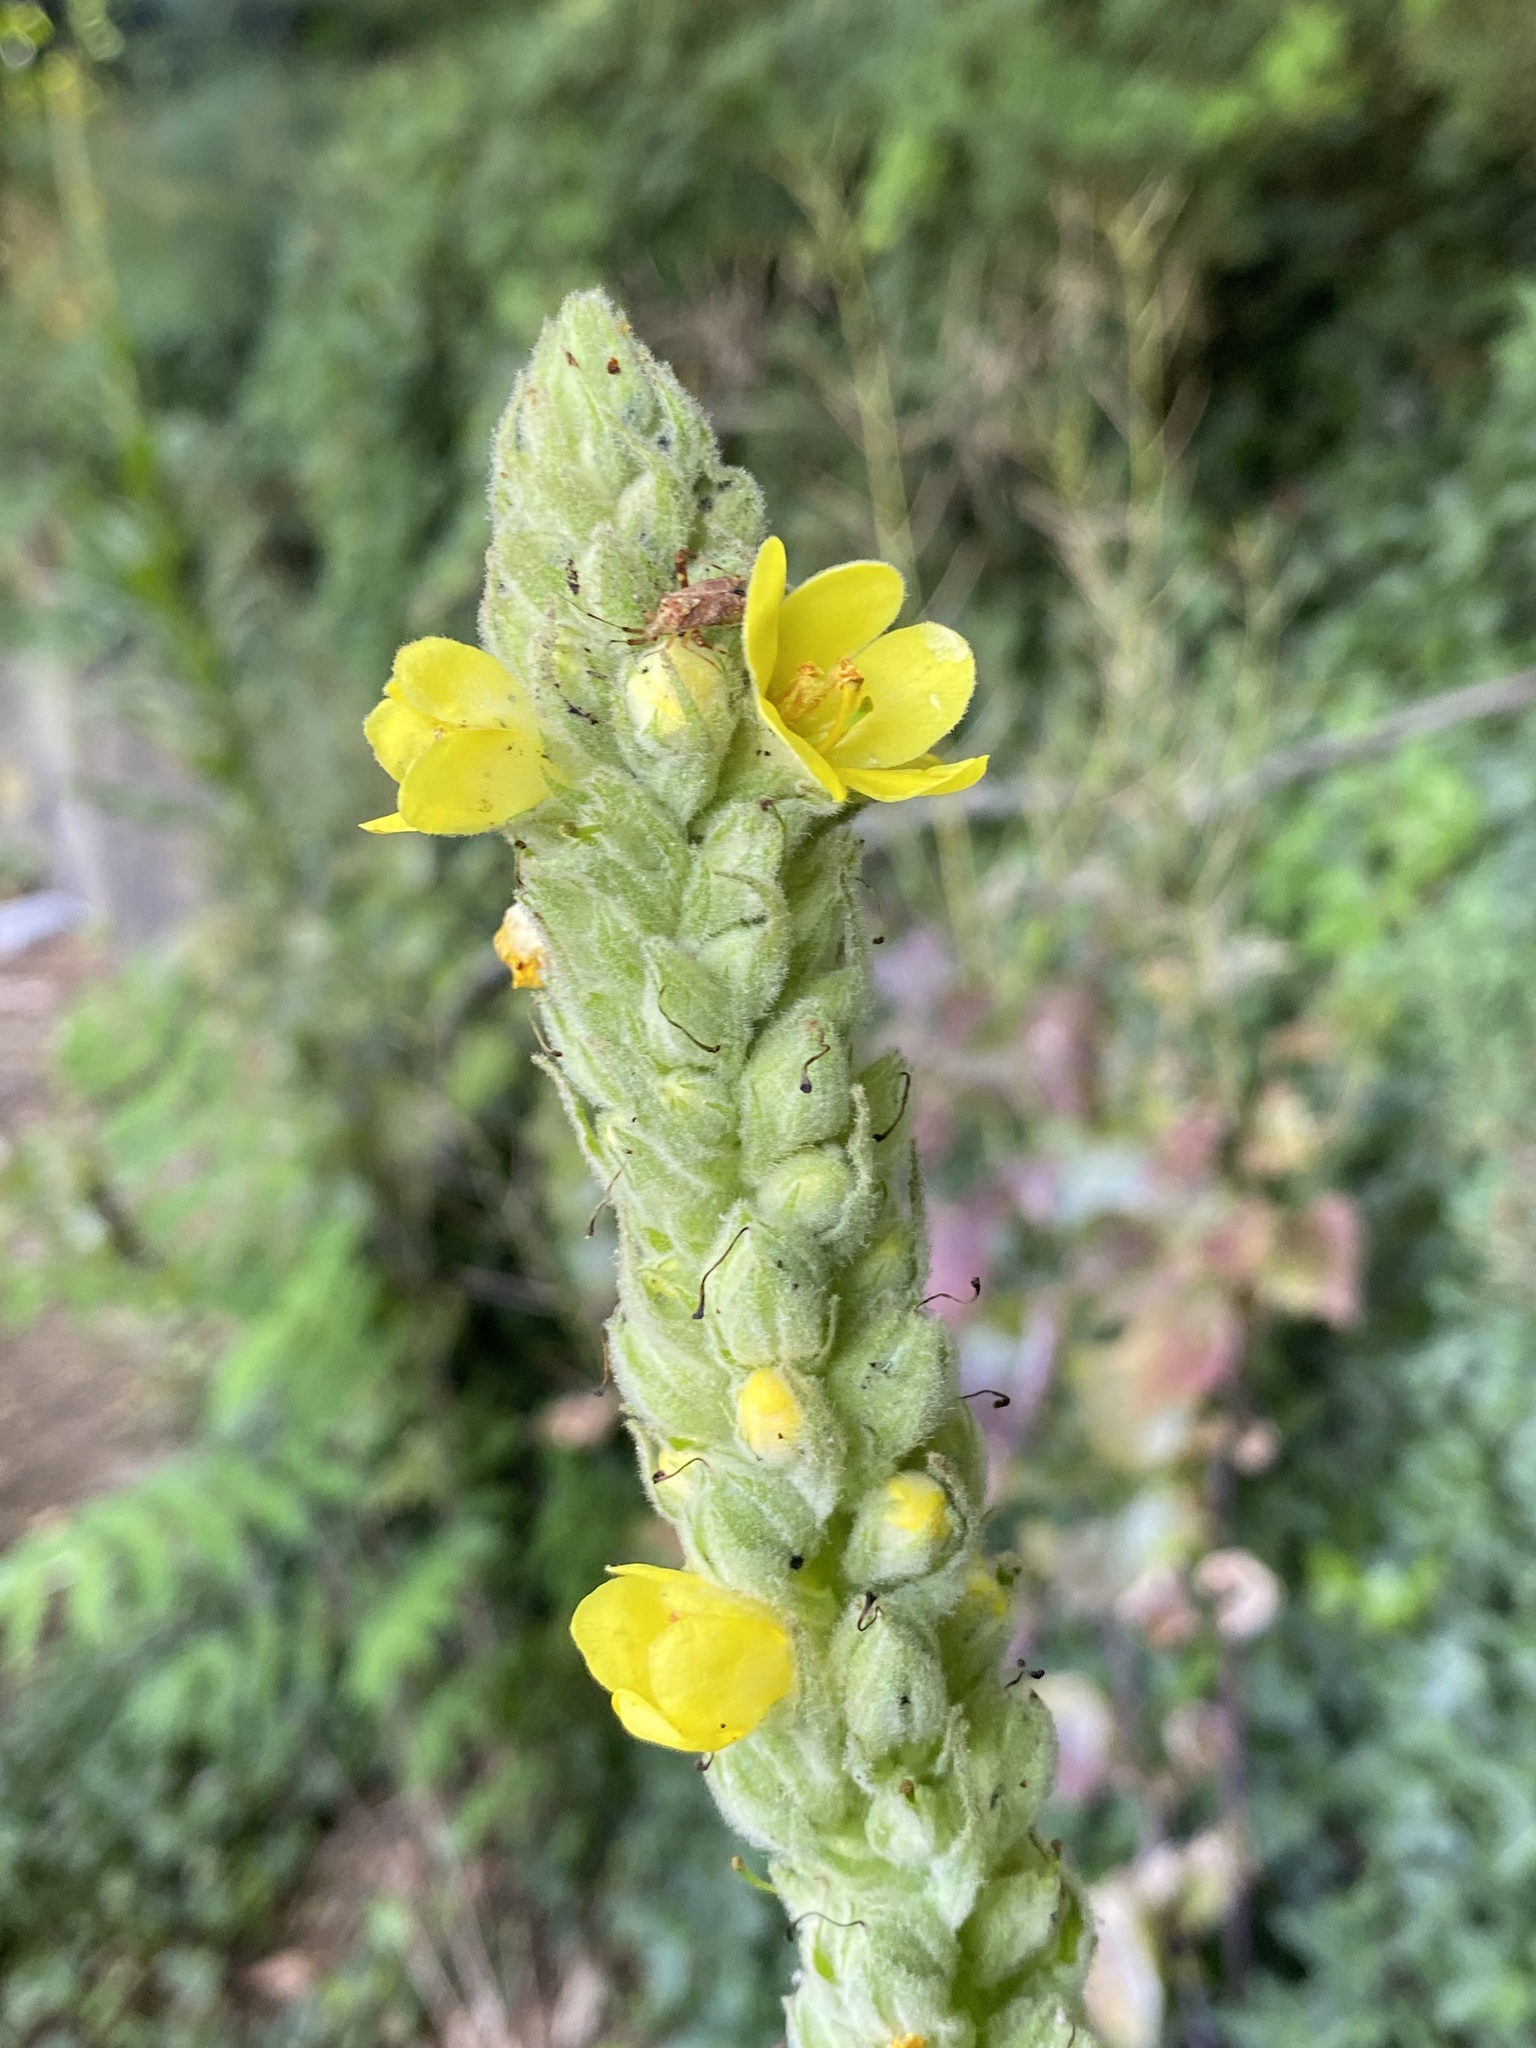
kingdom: Plantae
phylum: Tracheophyta
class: Magnoliopsida
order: Lamiales
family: Scrophulariaceae
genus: Verbascum
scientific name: Verbascum thapsus
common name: Common mullein
